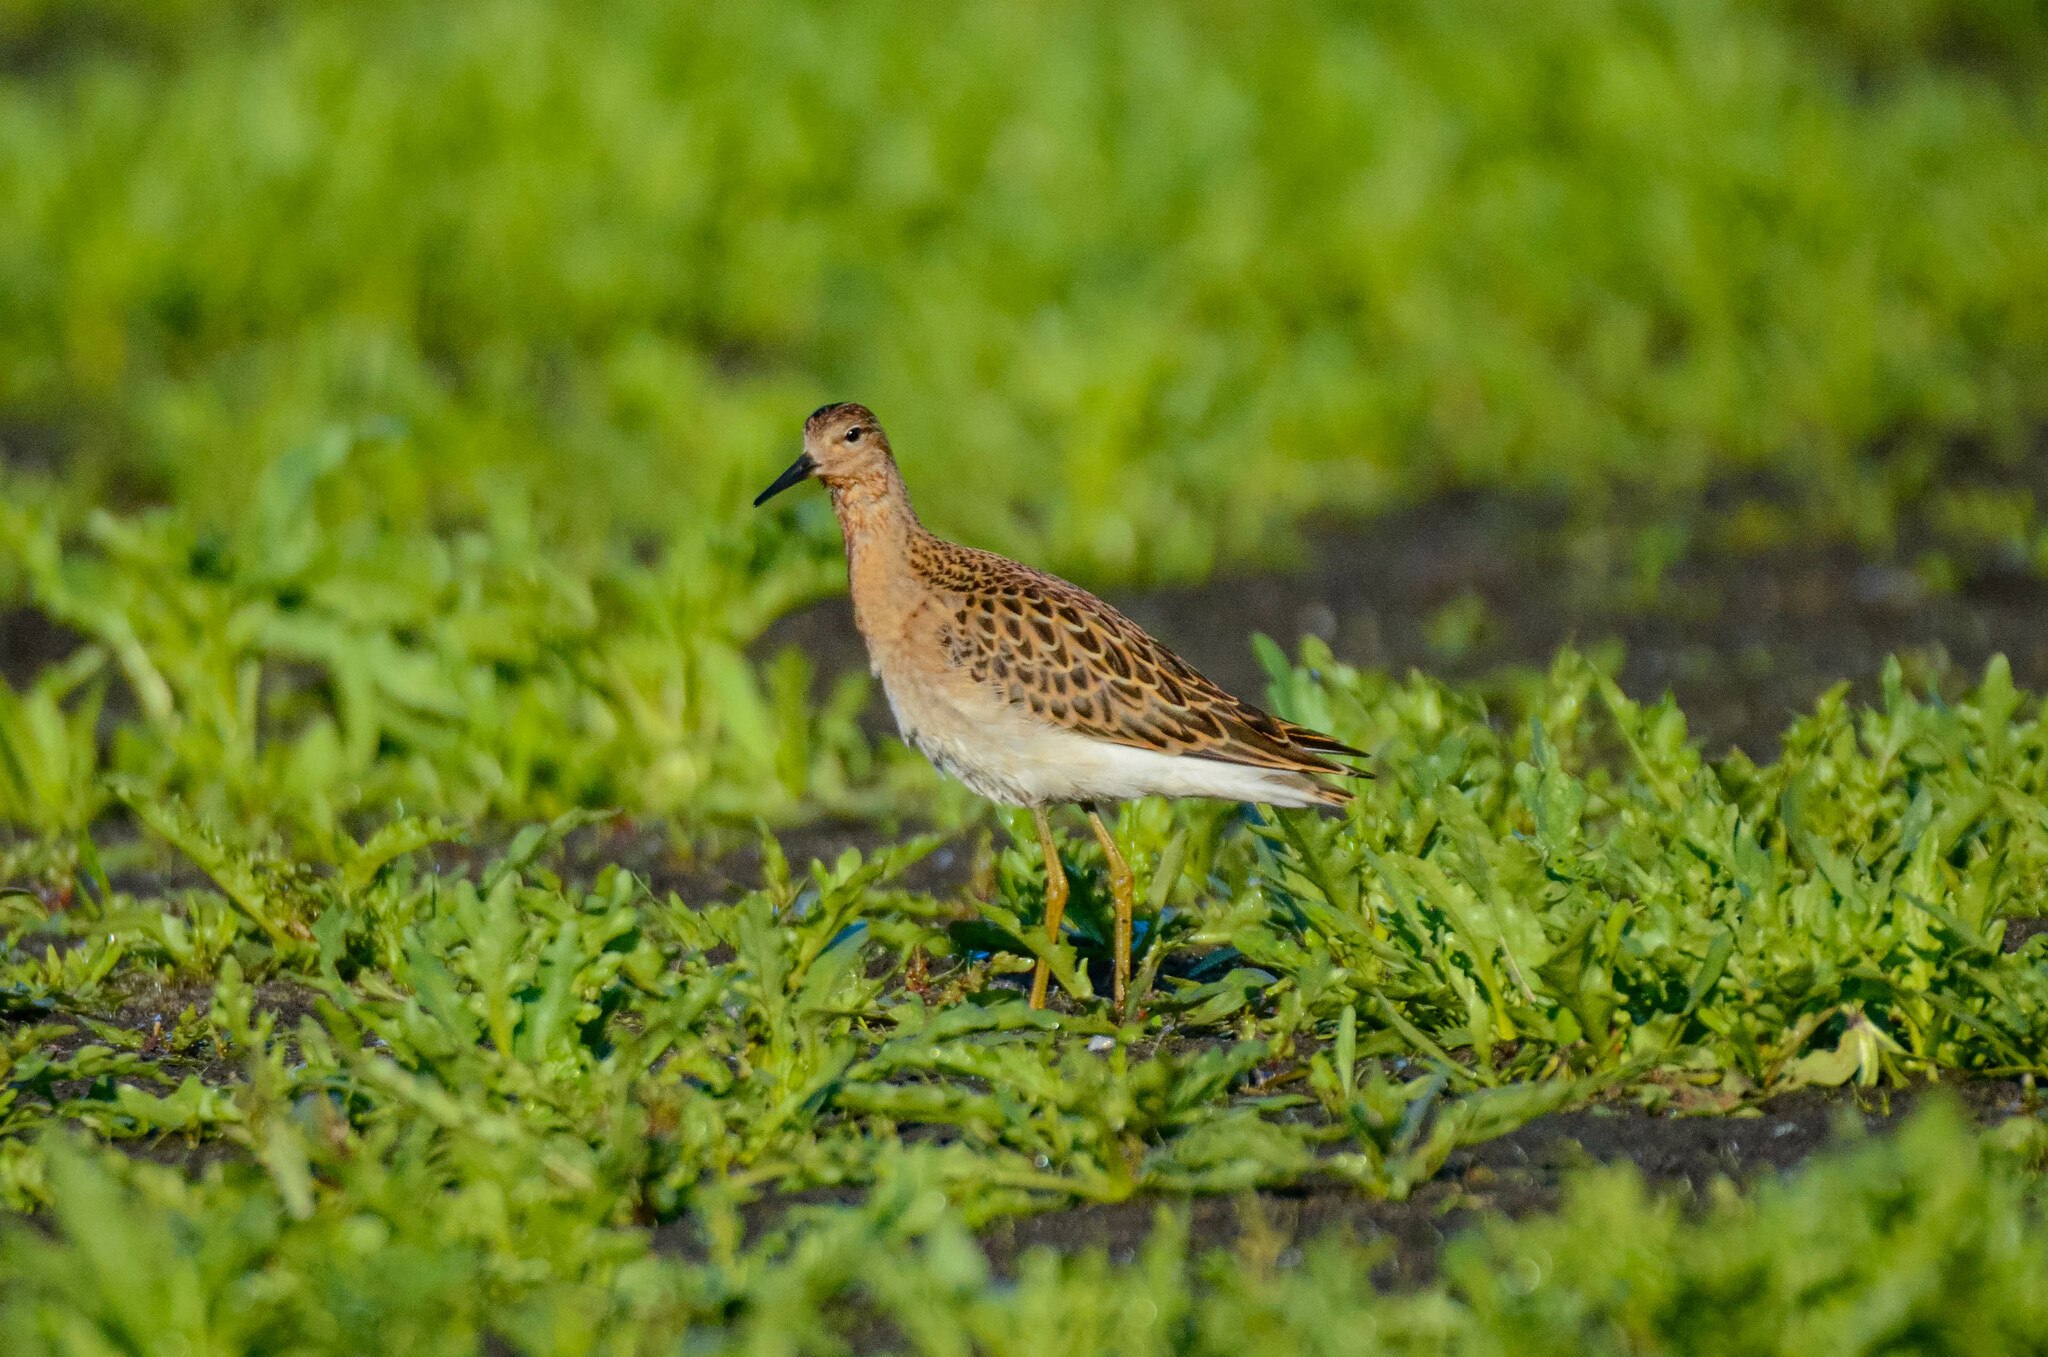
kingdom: Animalia
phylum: Chordata
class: Aves
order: Charadriiformes
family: Scolopacidae
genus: Calidris
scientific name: Calidris pugnax
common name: Ruff
